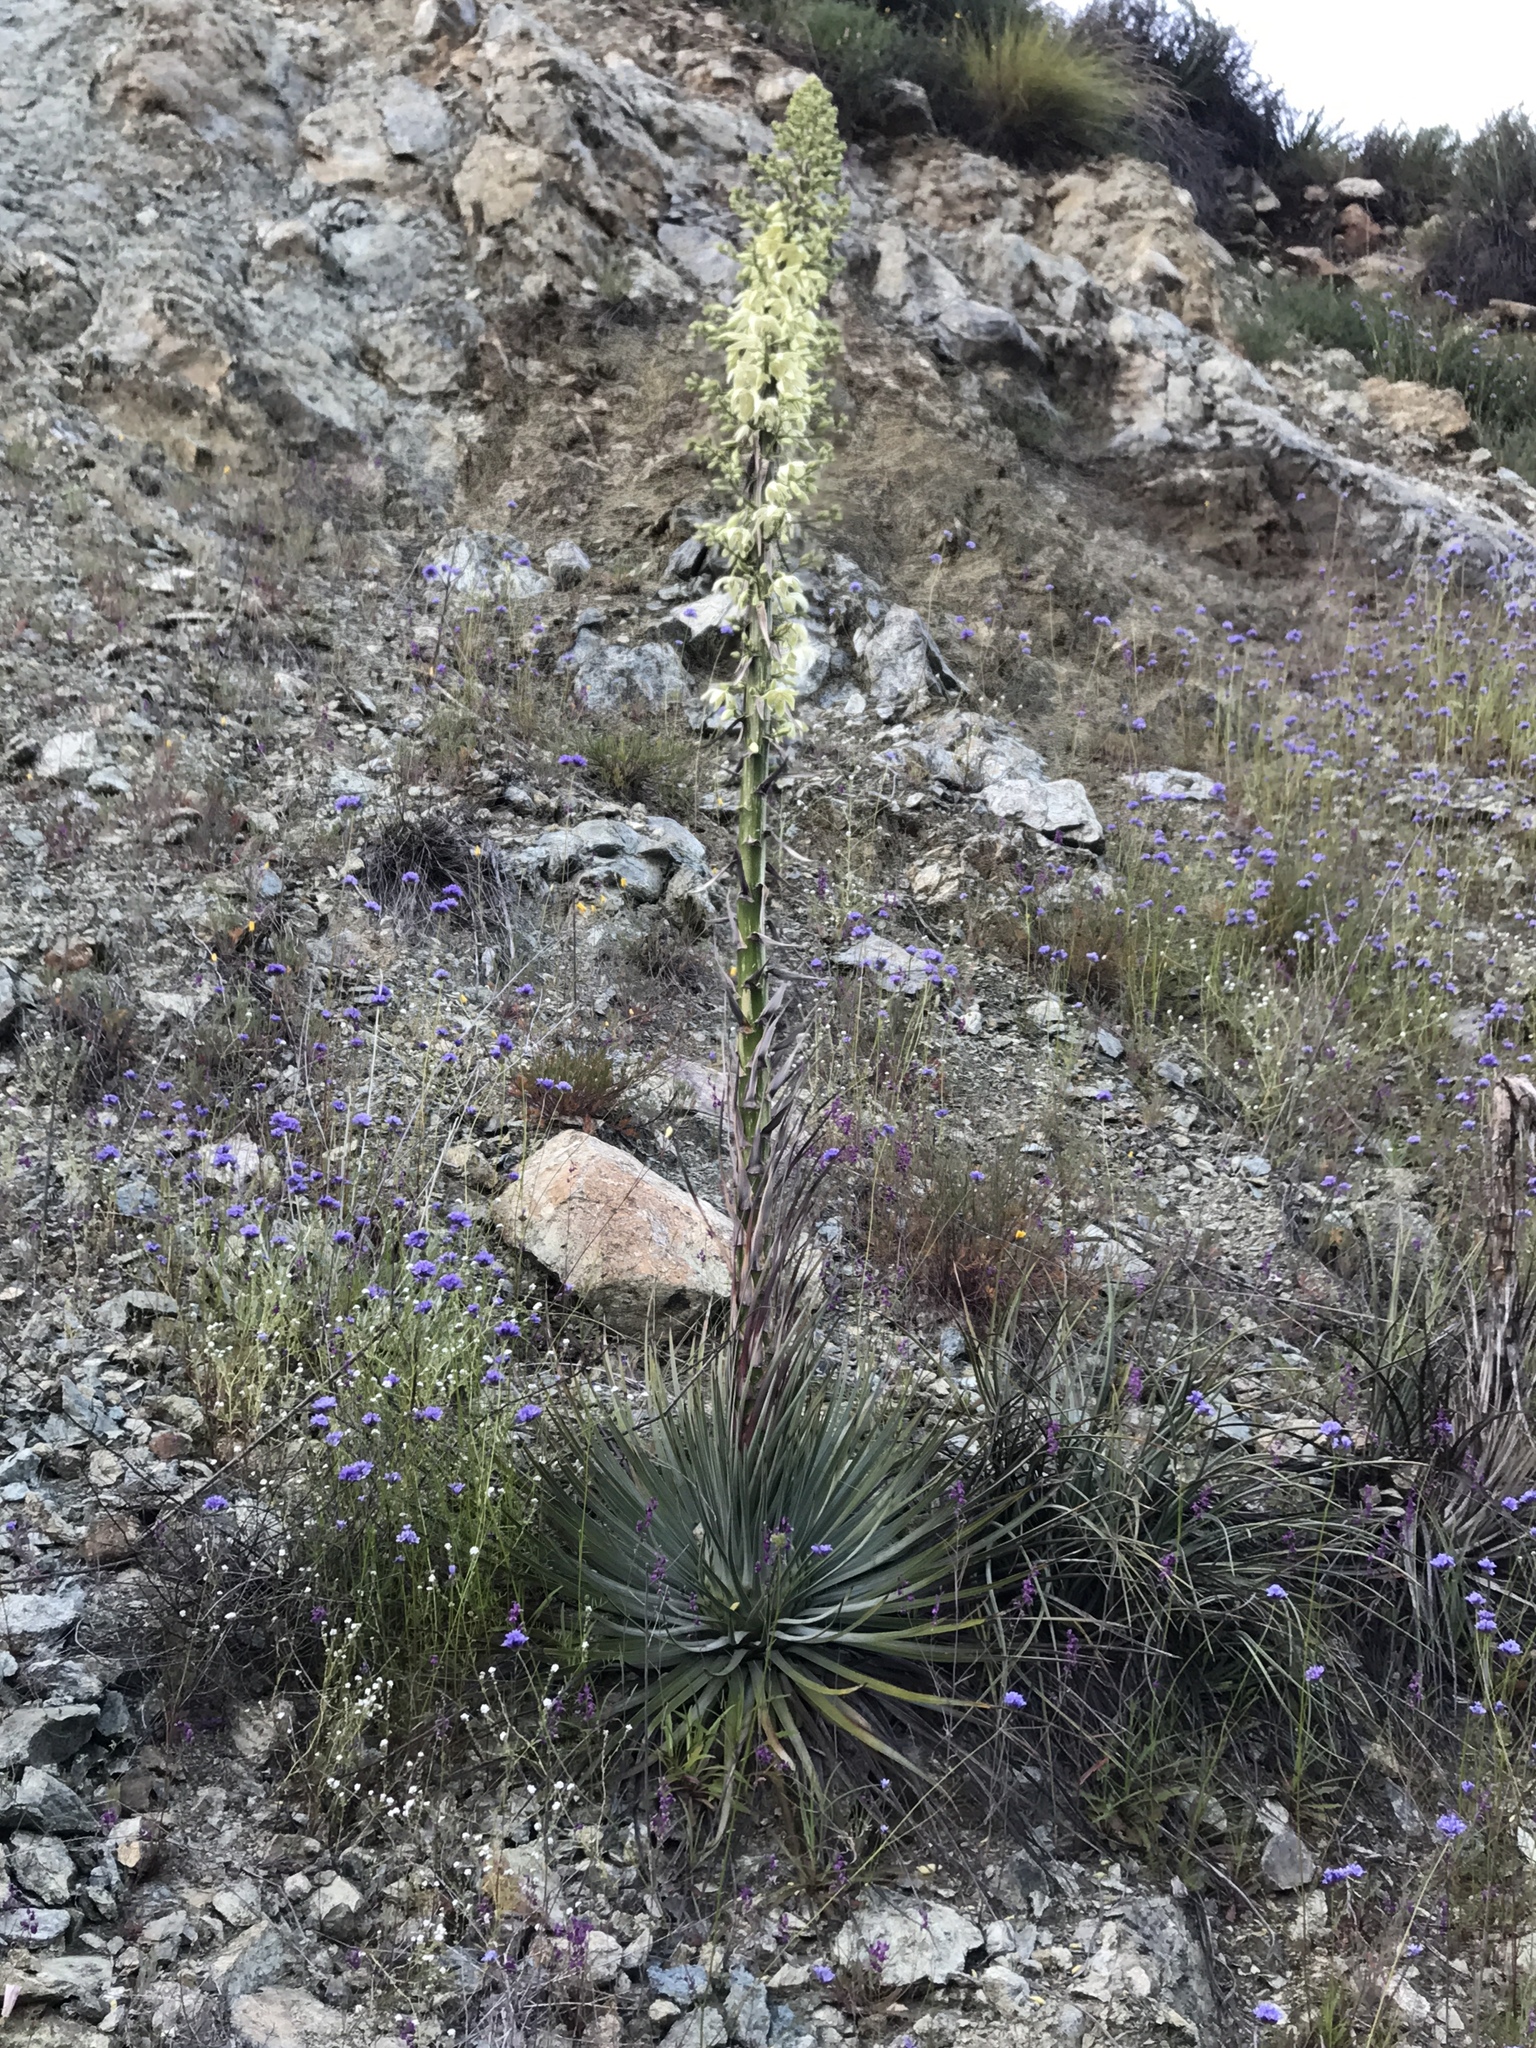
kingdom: Plantae
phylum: Tracheophyta
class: Liliopsida
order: Asparagales
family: Asparagaceae
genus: Hesperoyucca
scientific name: Hesperoyucca whipplei
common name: Our lord's-candle
